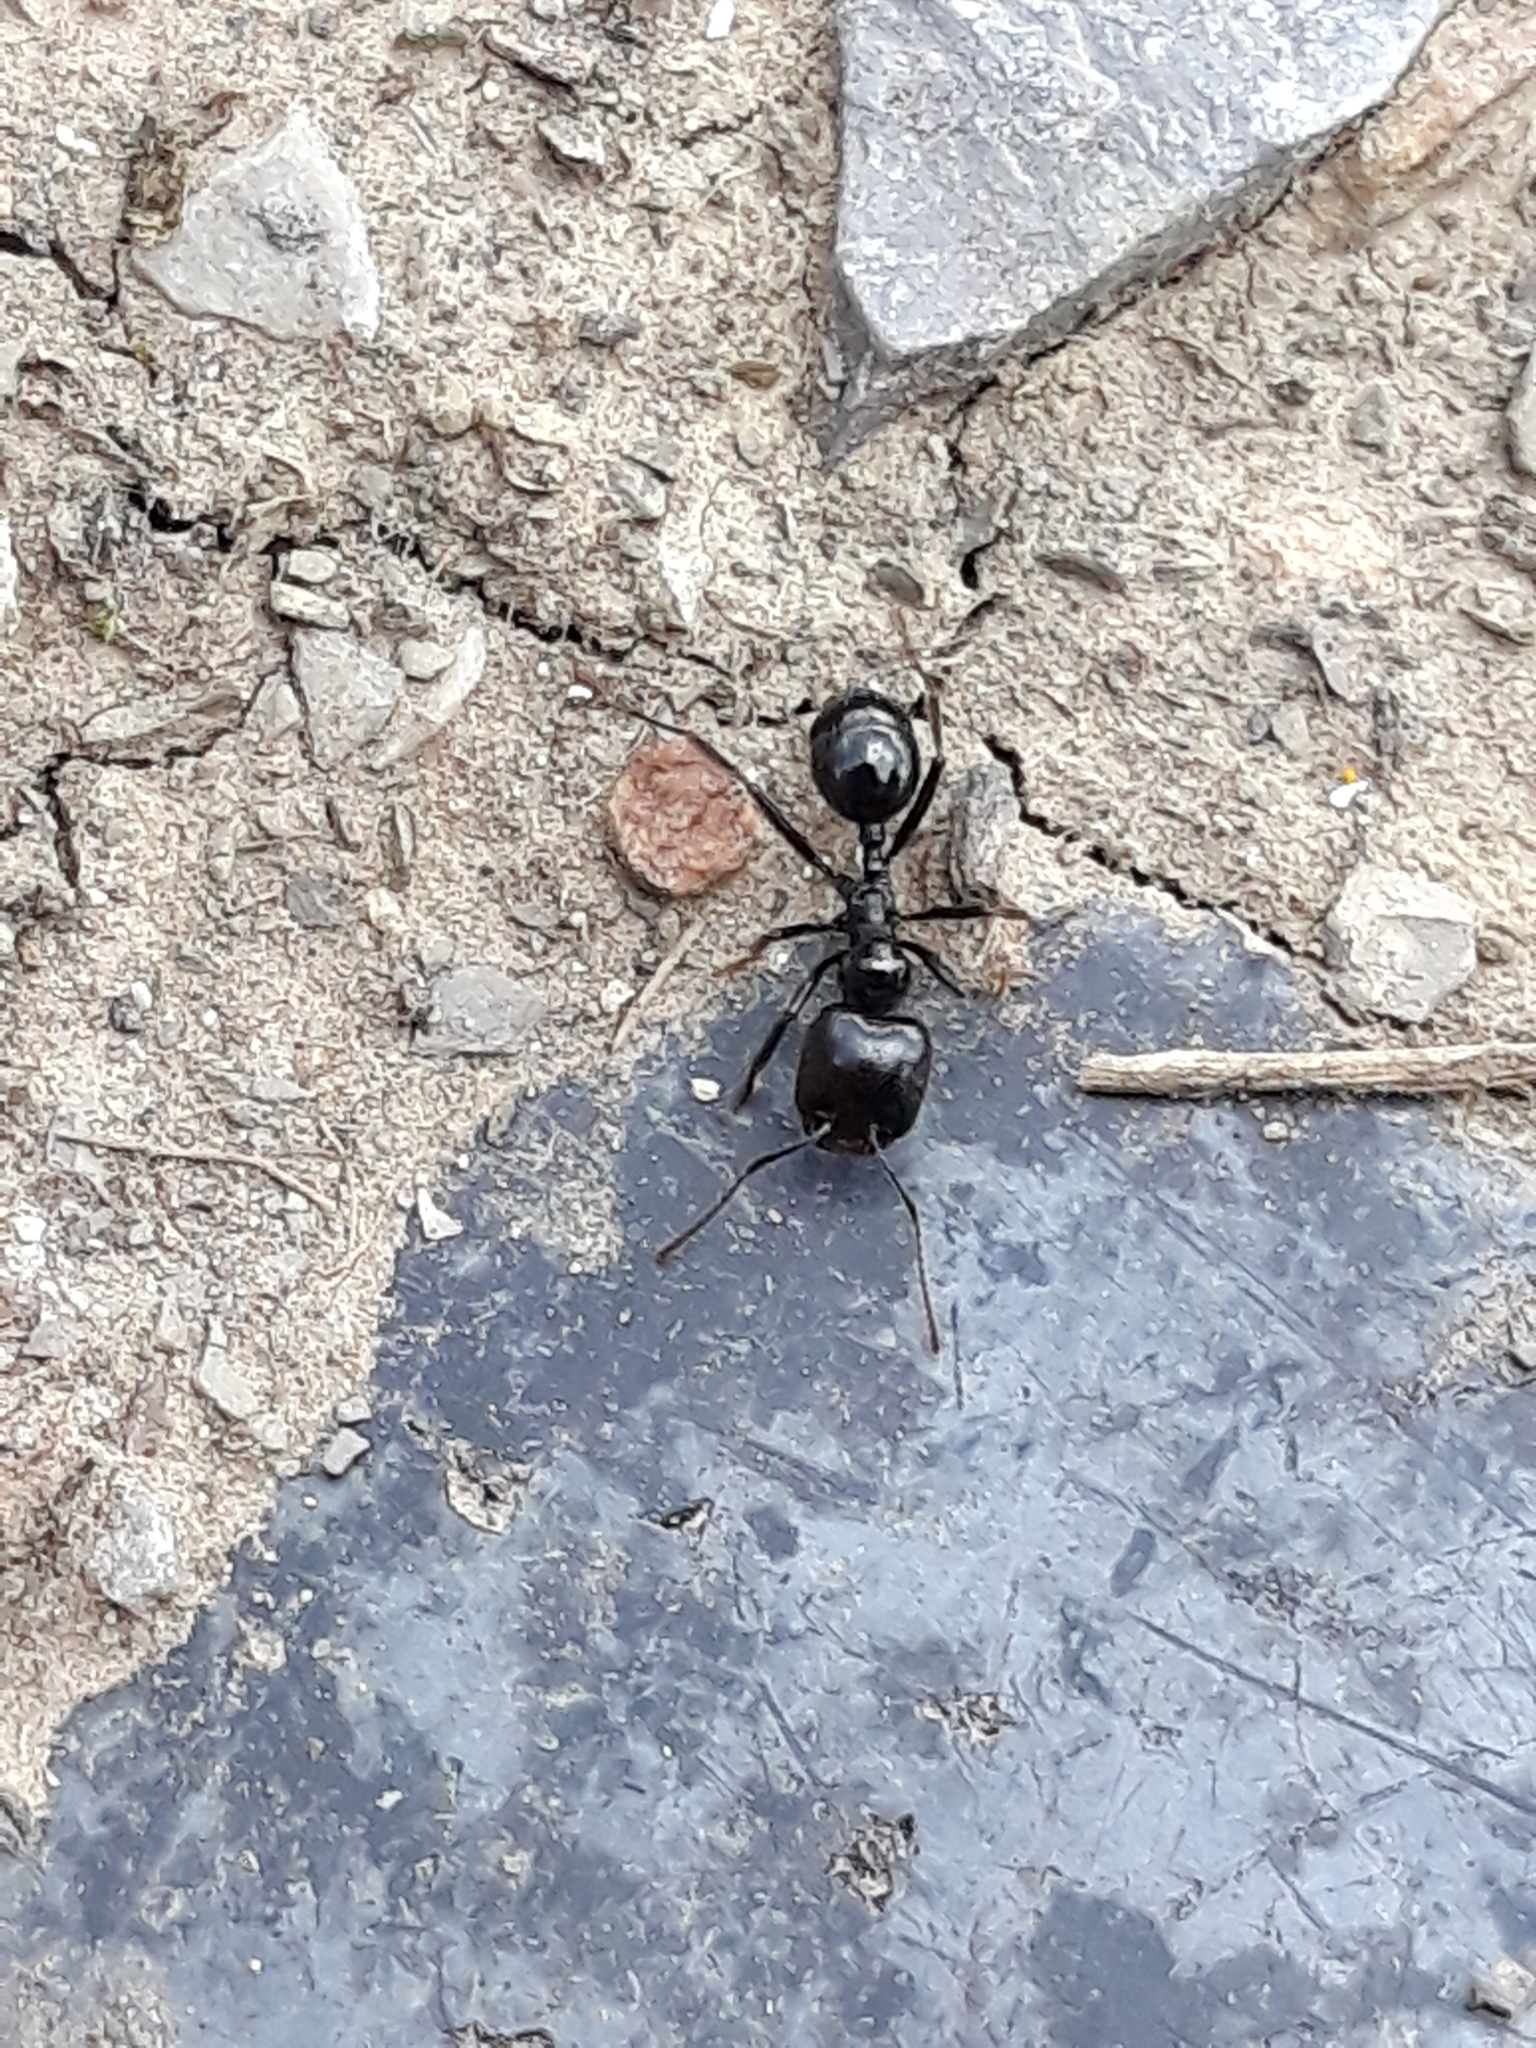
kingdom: Animalia
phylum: Arthropoda
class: Insecta
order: Hymenoptera
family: Formicidae
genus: Messor
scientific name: Messor barbarus
